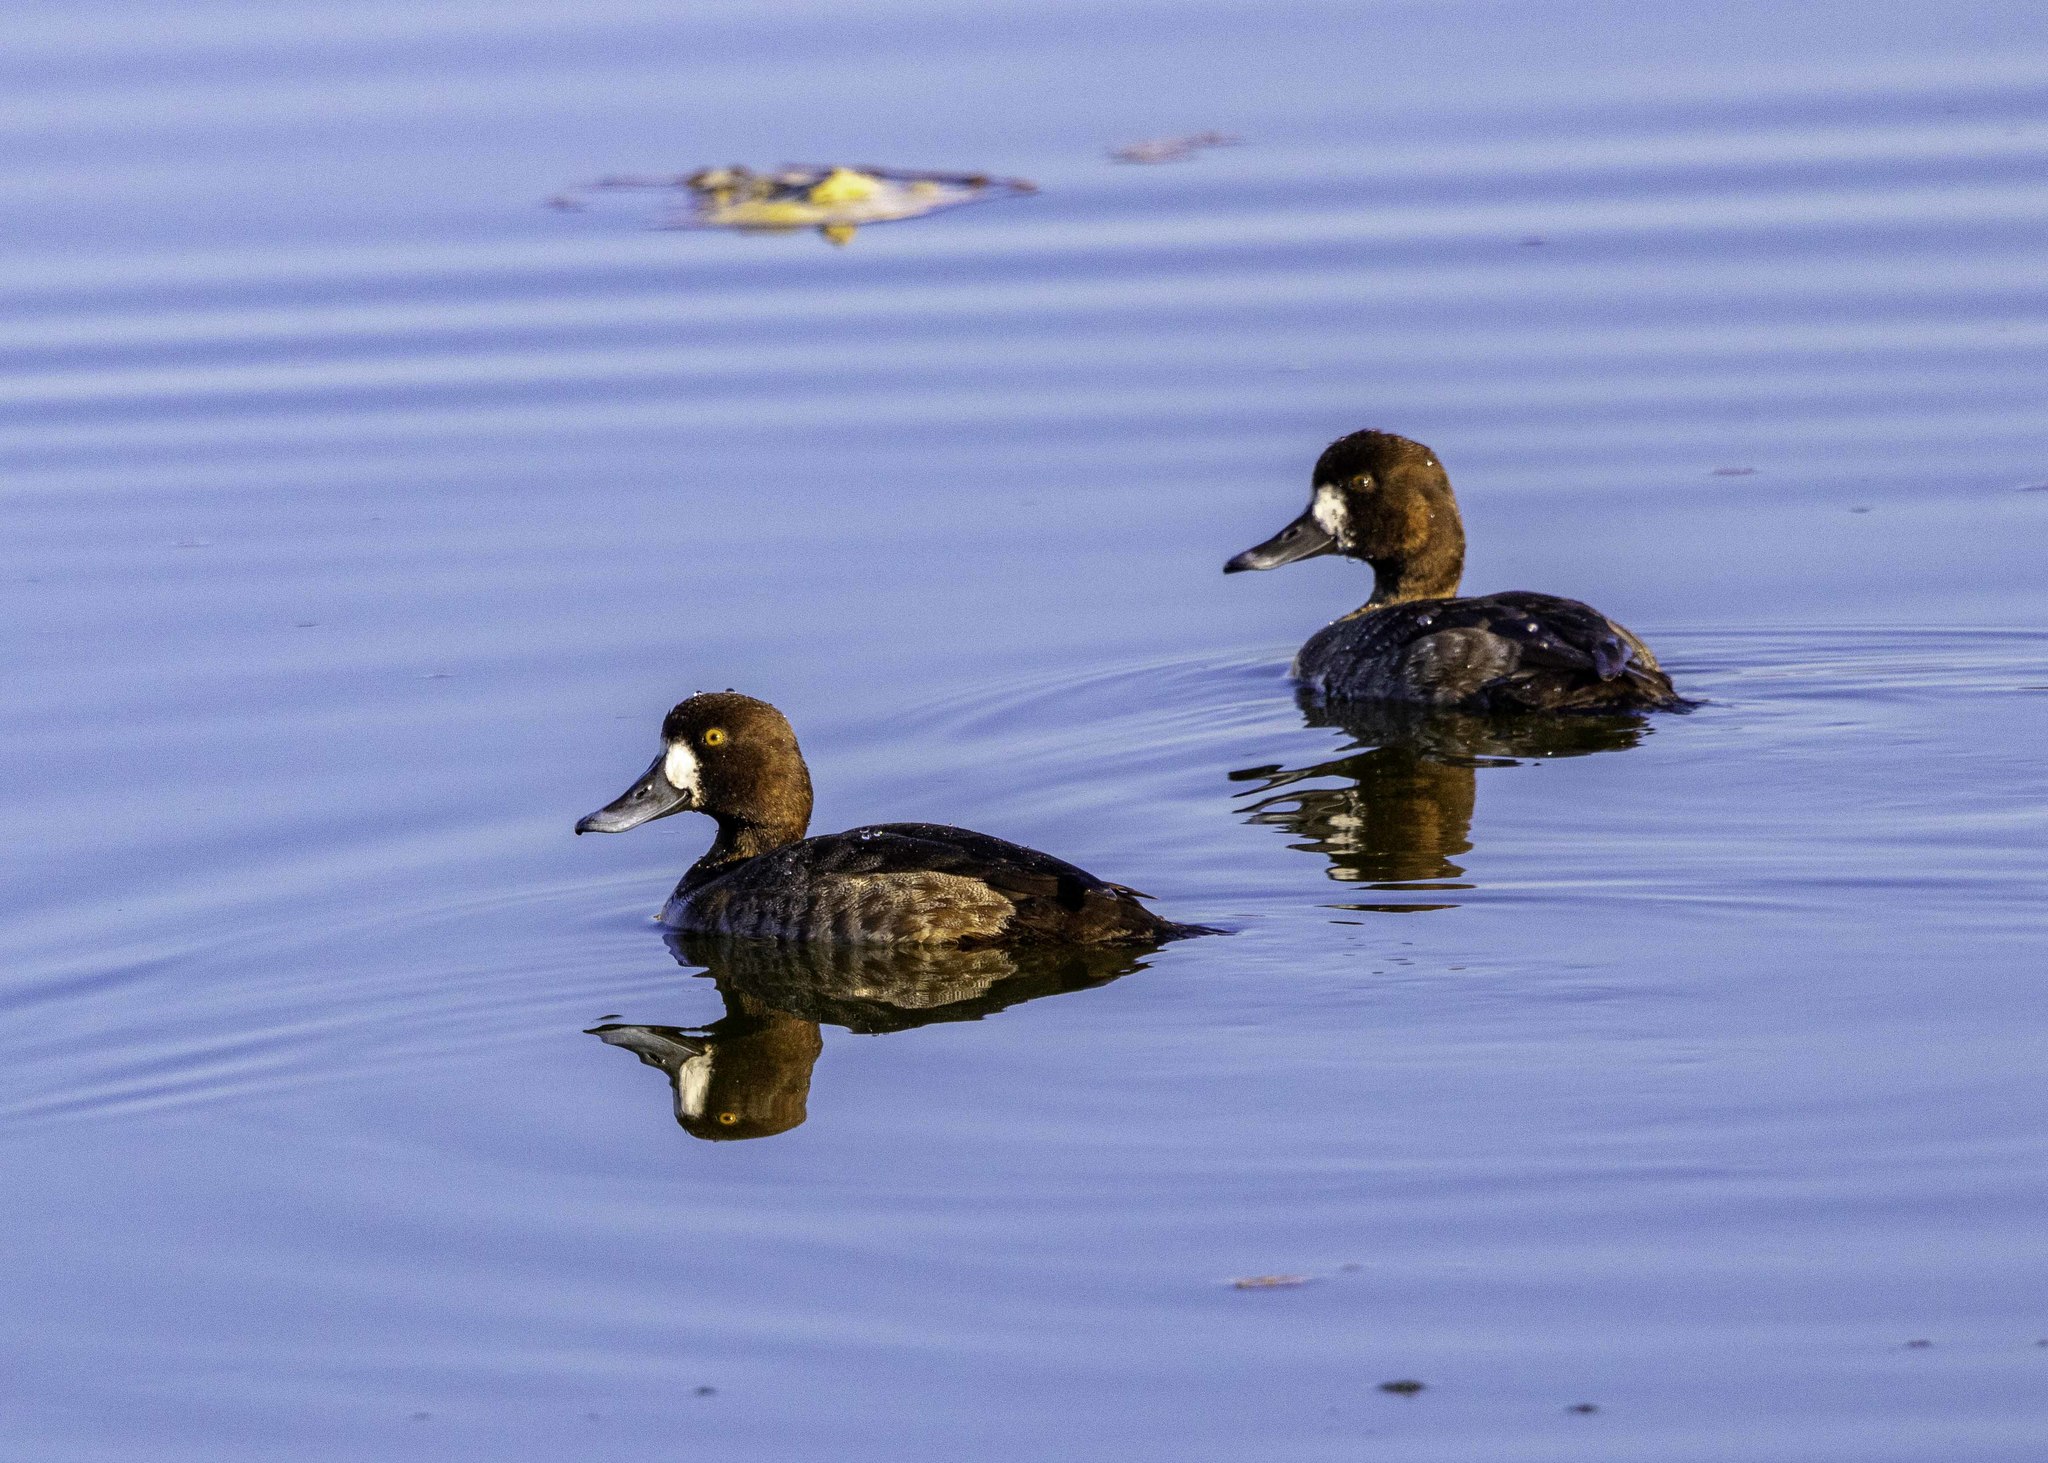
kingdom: Animalia
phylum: Chordata
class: Aves
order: Anseriformes
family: Anatidae
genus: Aythya
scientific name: Aythya affinis
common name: Lesser scaup
